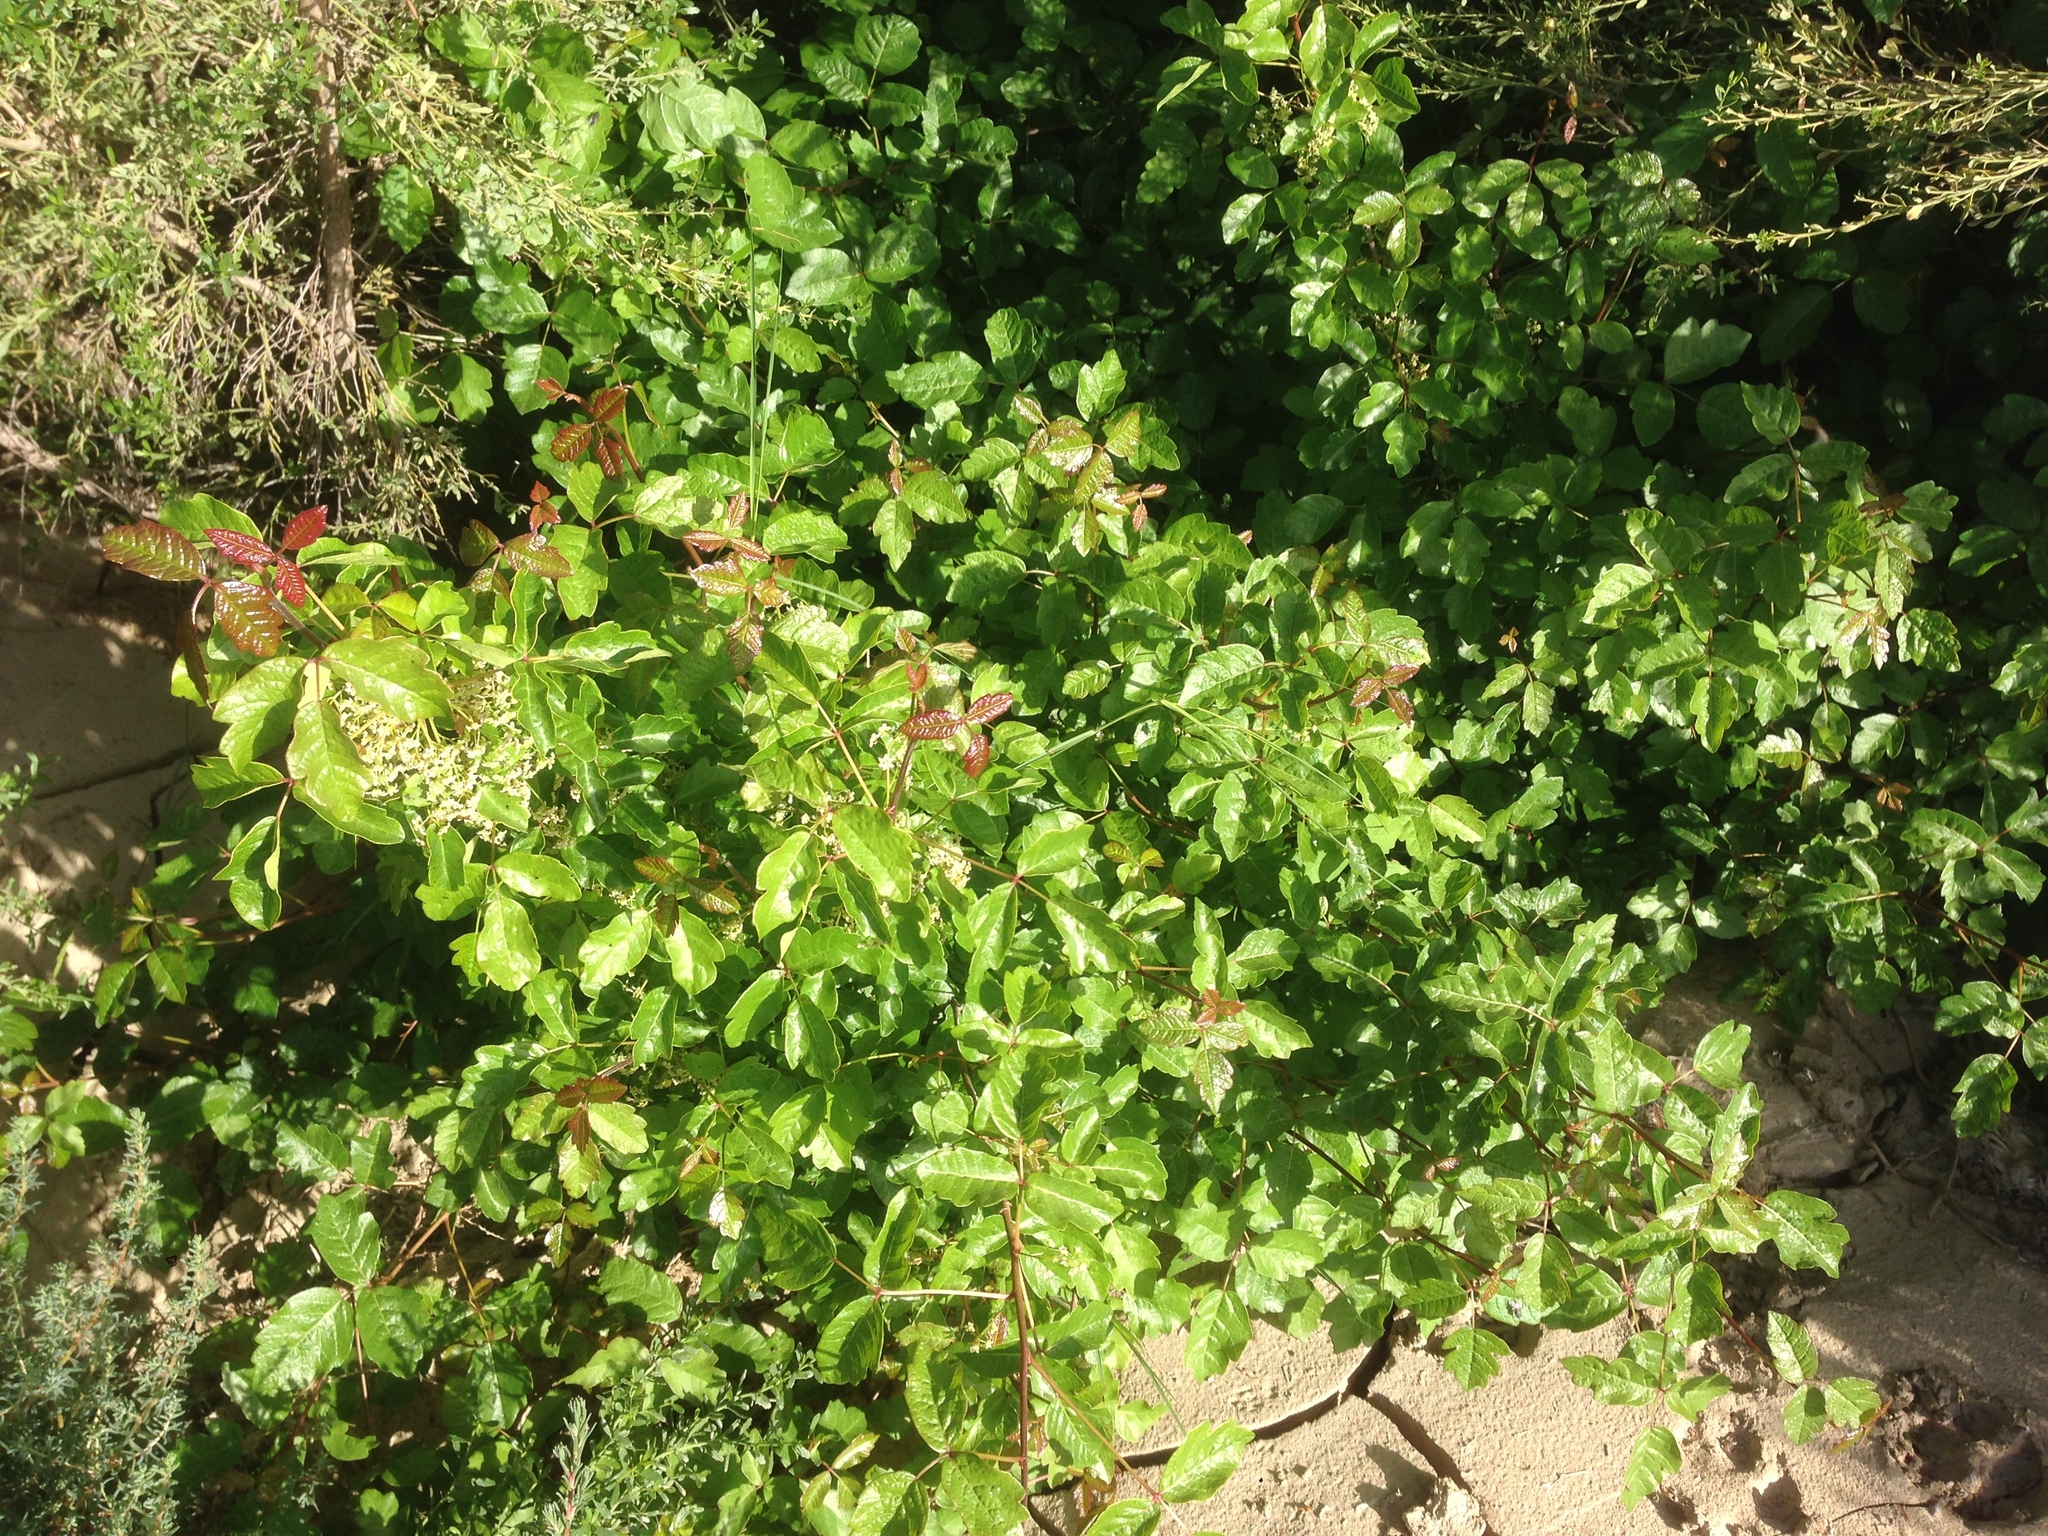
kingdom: Plantae
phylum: Tracheophyta
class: Magnoliopsida
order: Sapindales
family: Anacardiaceae
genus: Toxicodendron
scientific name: Toxicodendron diversilobum
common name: Pacific poison-oak
